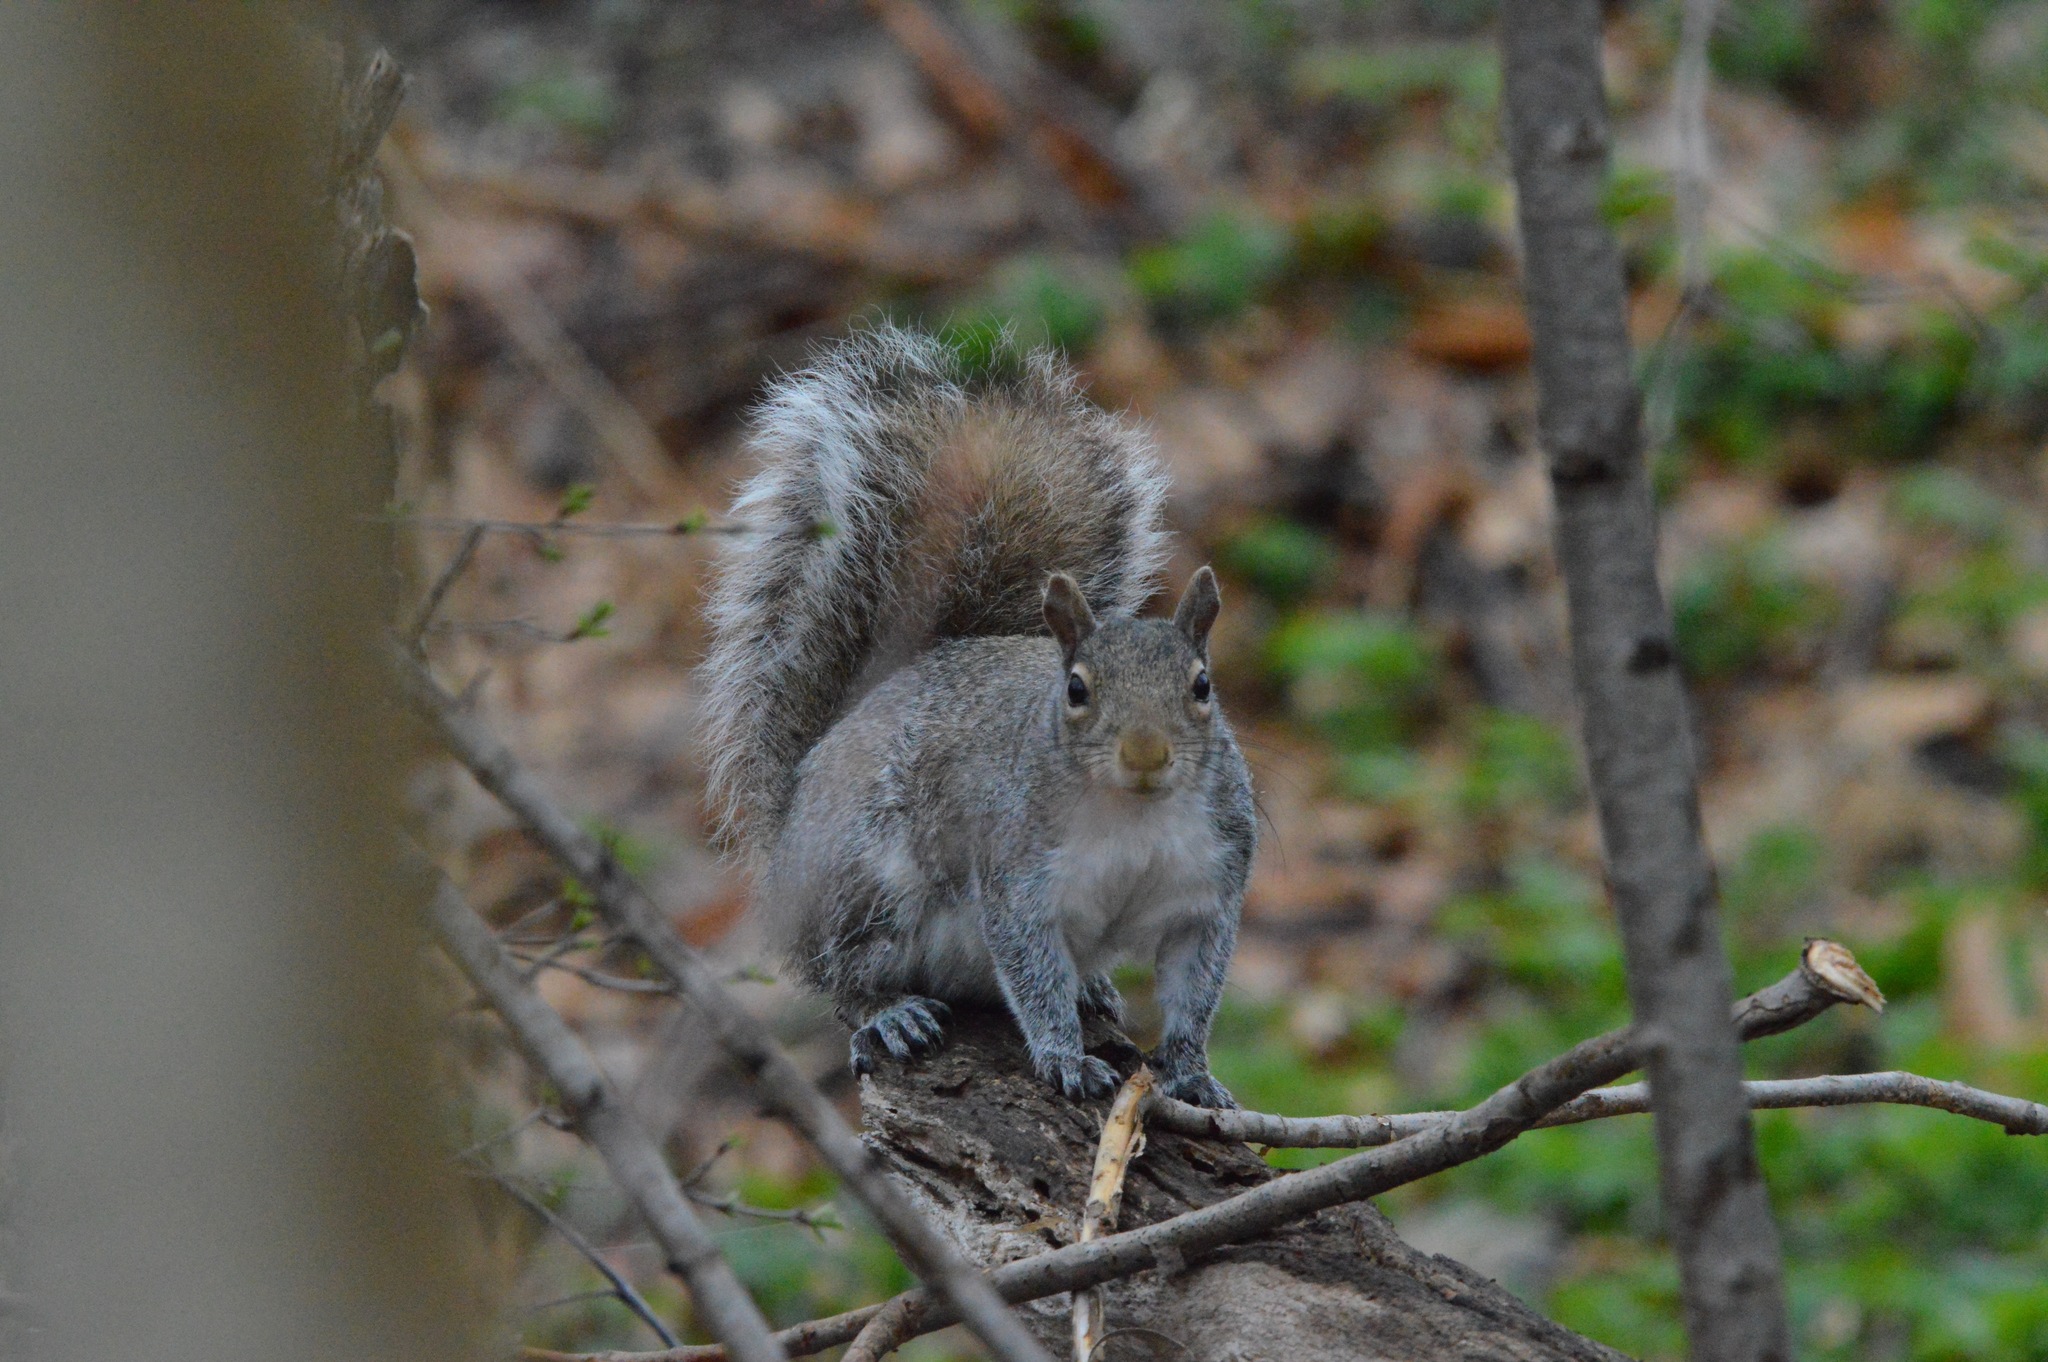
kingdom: Animalia
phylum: Chordata
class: Mammalia
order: Rodentia
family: Sciuridae
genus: Sciurus
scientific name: Sciurus carolinensis
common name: Eastern gray squirrel
